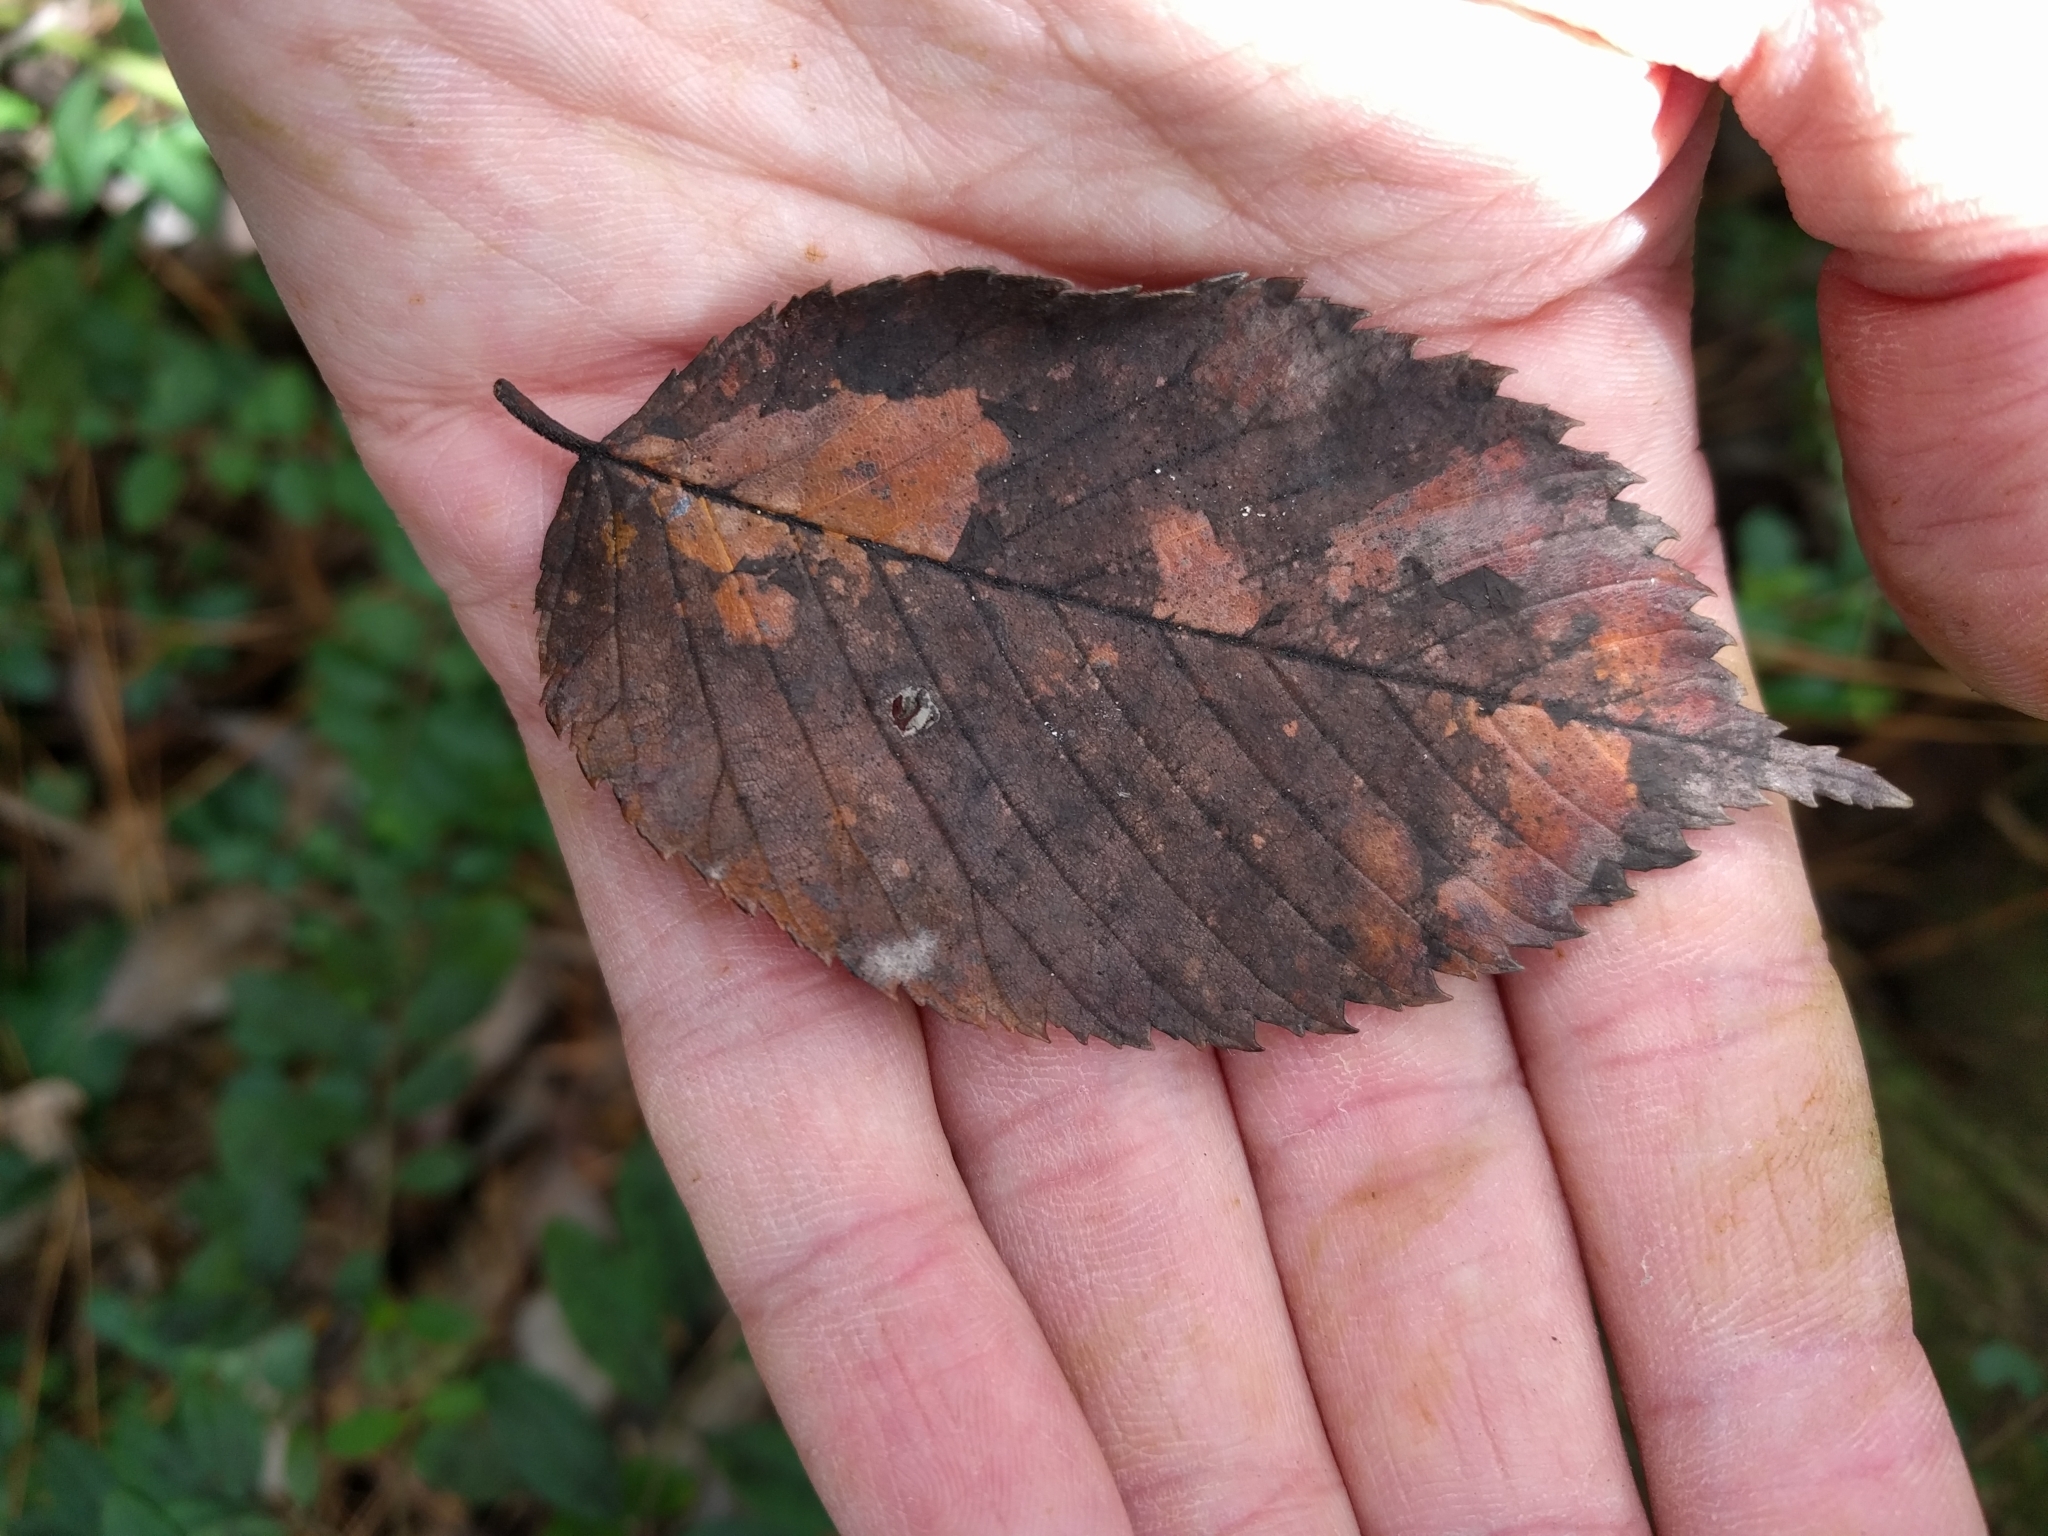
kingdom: Plantae
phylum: Tracheophyta
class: Magnoliopsida
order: Rosales
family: Ulmaceae
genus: Ulmus
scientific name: Ulmus americana
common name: American elm
